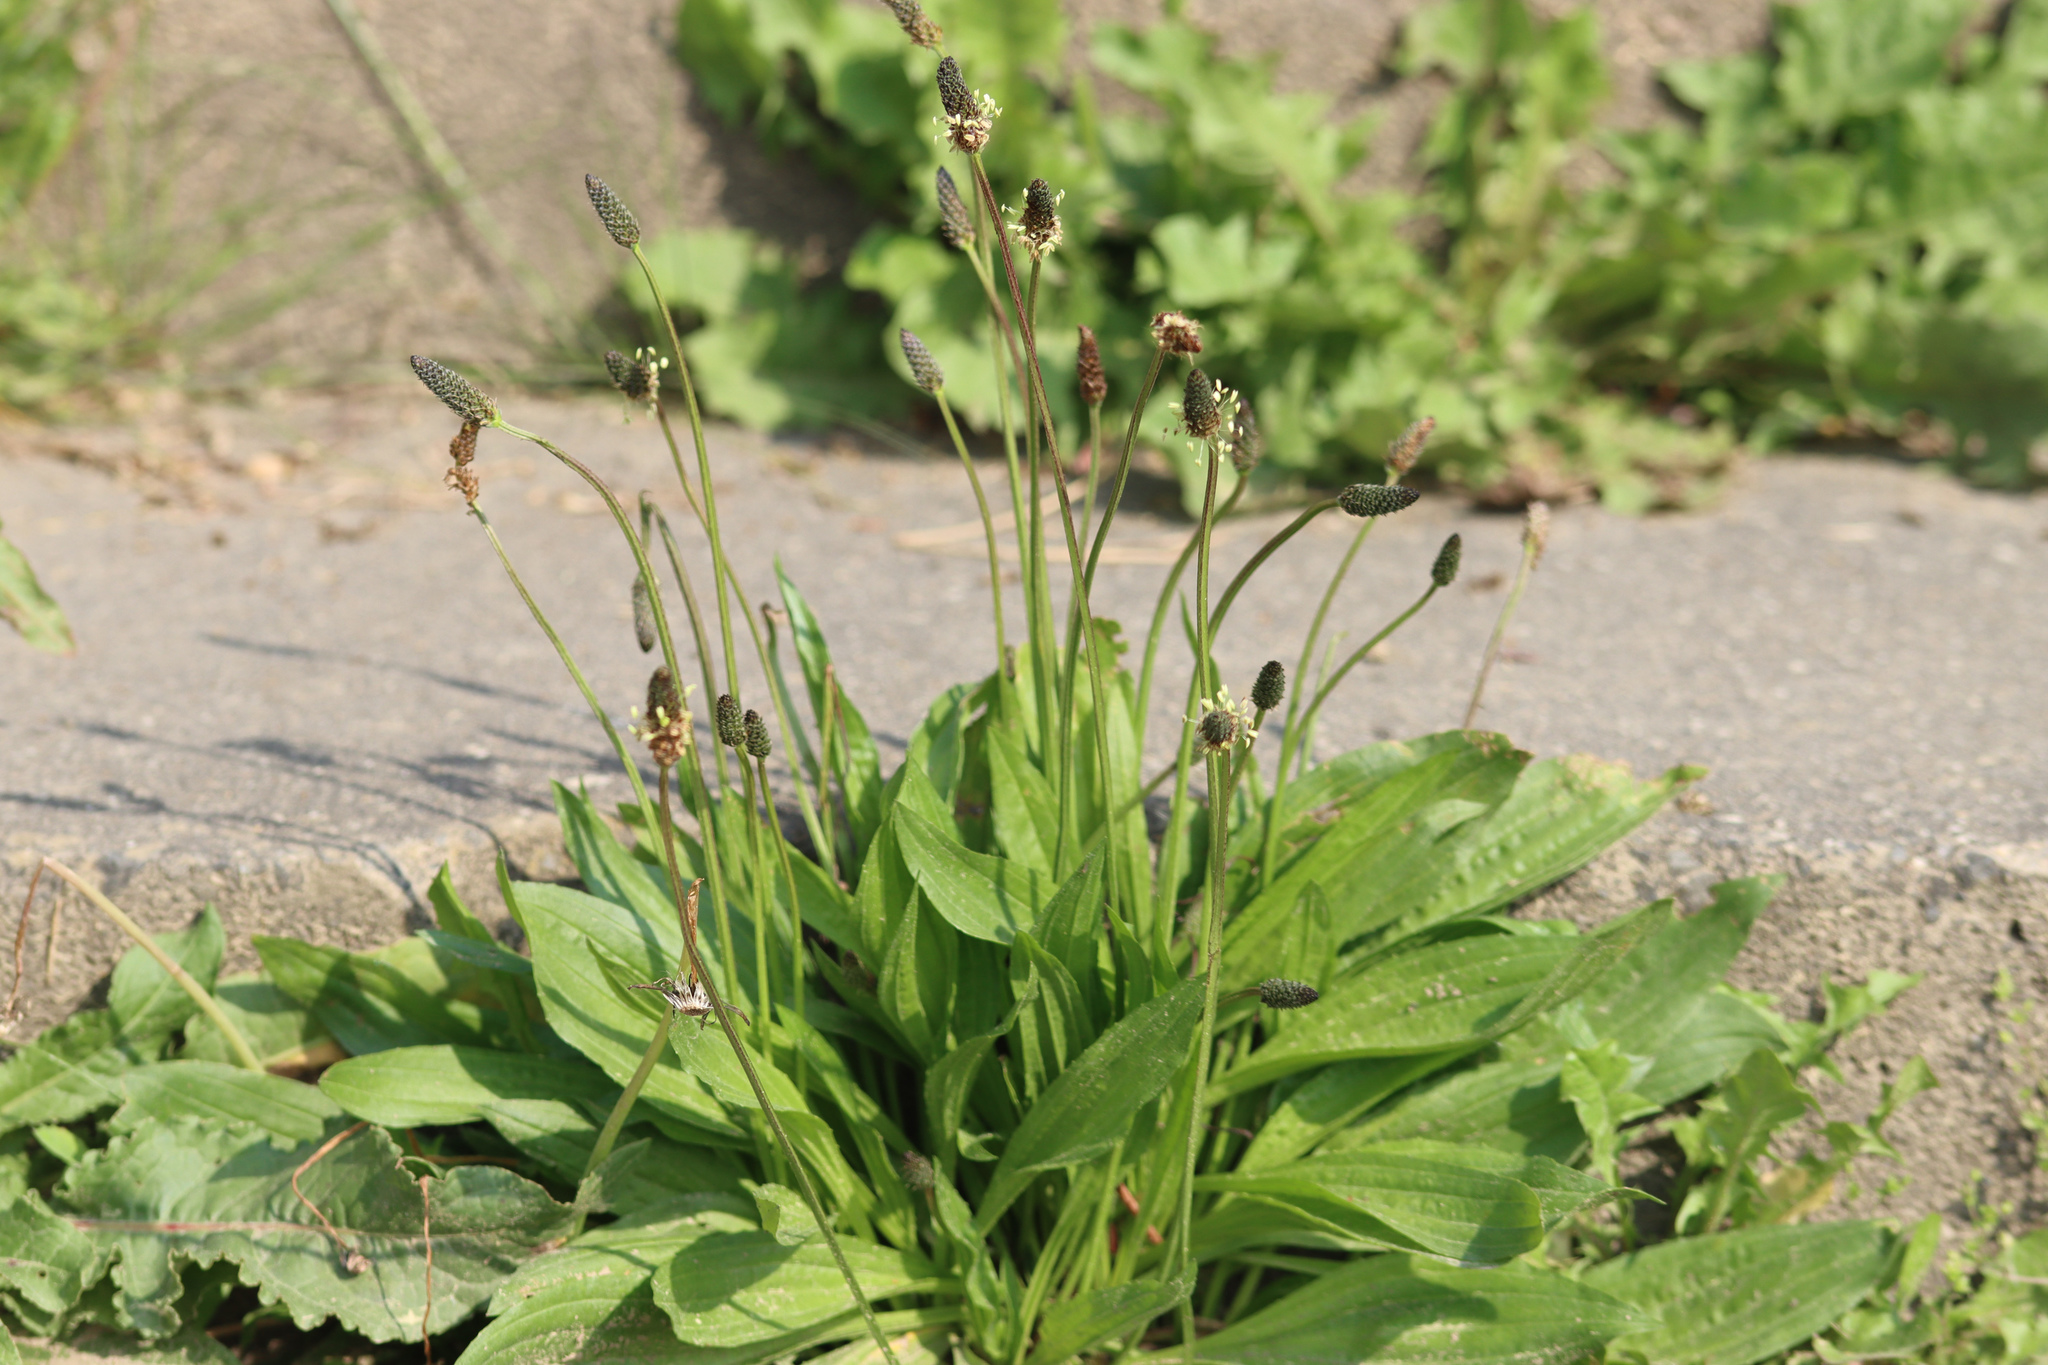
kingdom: Plantae
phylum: Tracheophyta
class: Magnoliopsida
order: Lamiales
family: Plantaginaceae
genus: Plantago
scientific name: Plantago lanceolata
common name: Ribwort plantain
